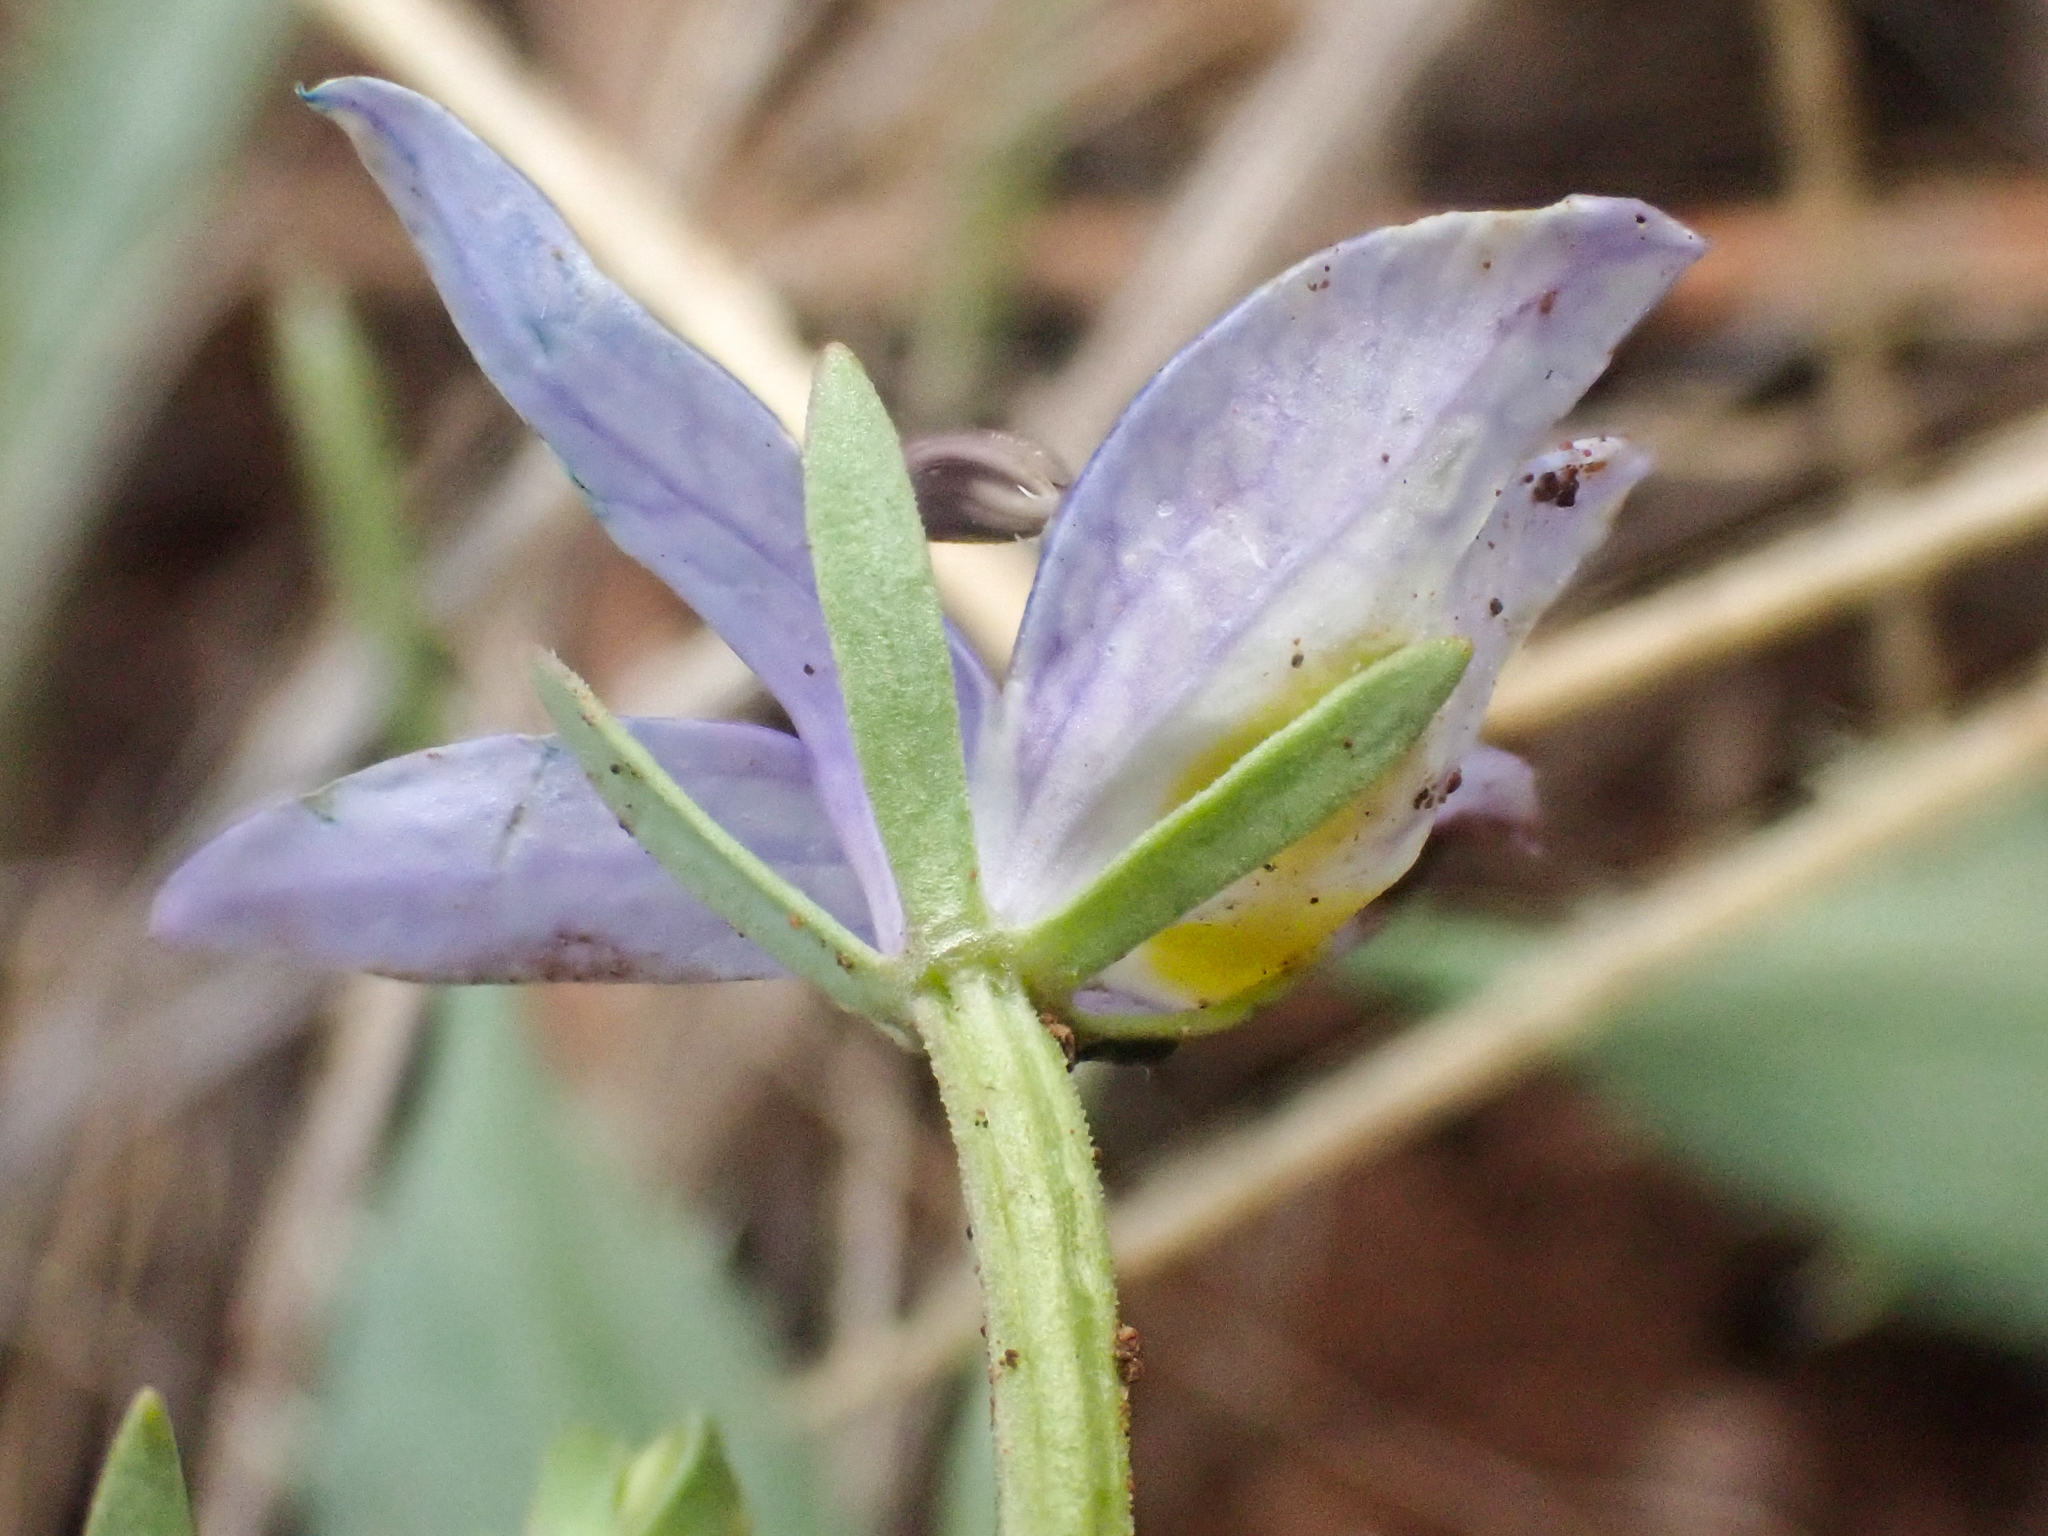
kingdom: Plantae
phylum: Tracheophyta
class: Magnoliopsida
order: Asterales
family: Campanulaceae
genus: Downingia
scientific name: Downingia bacigalupii
